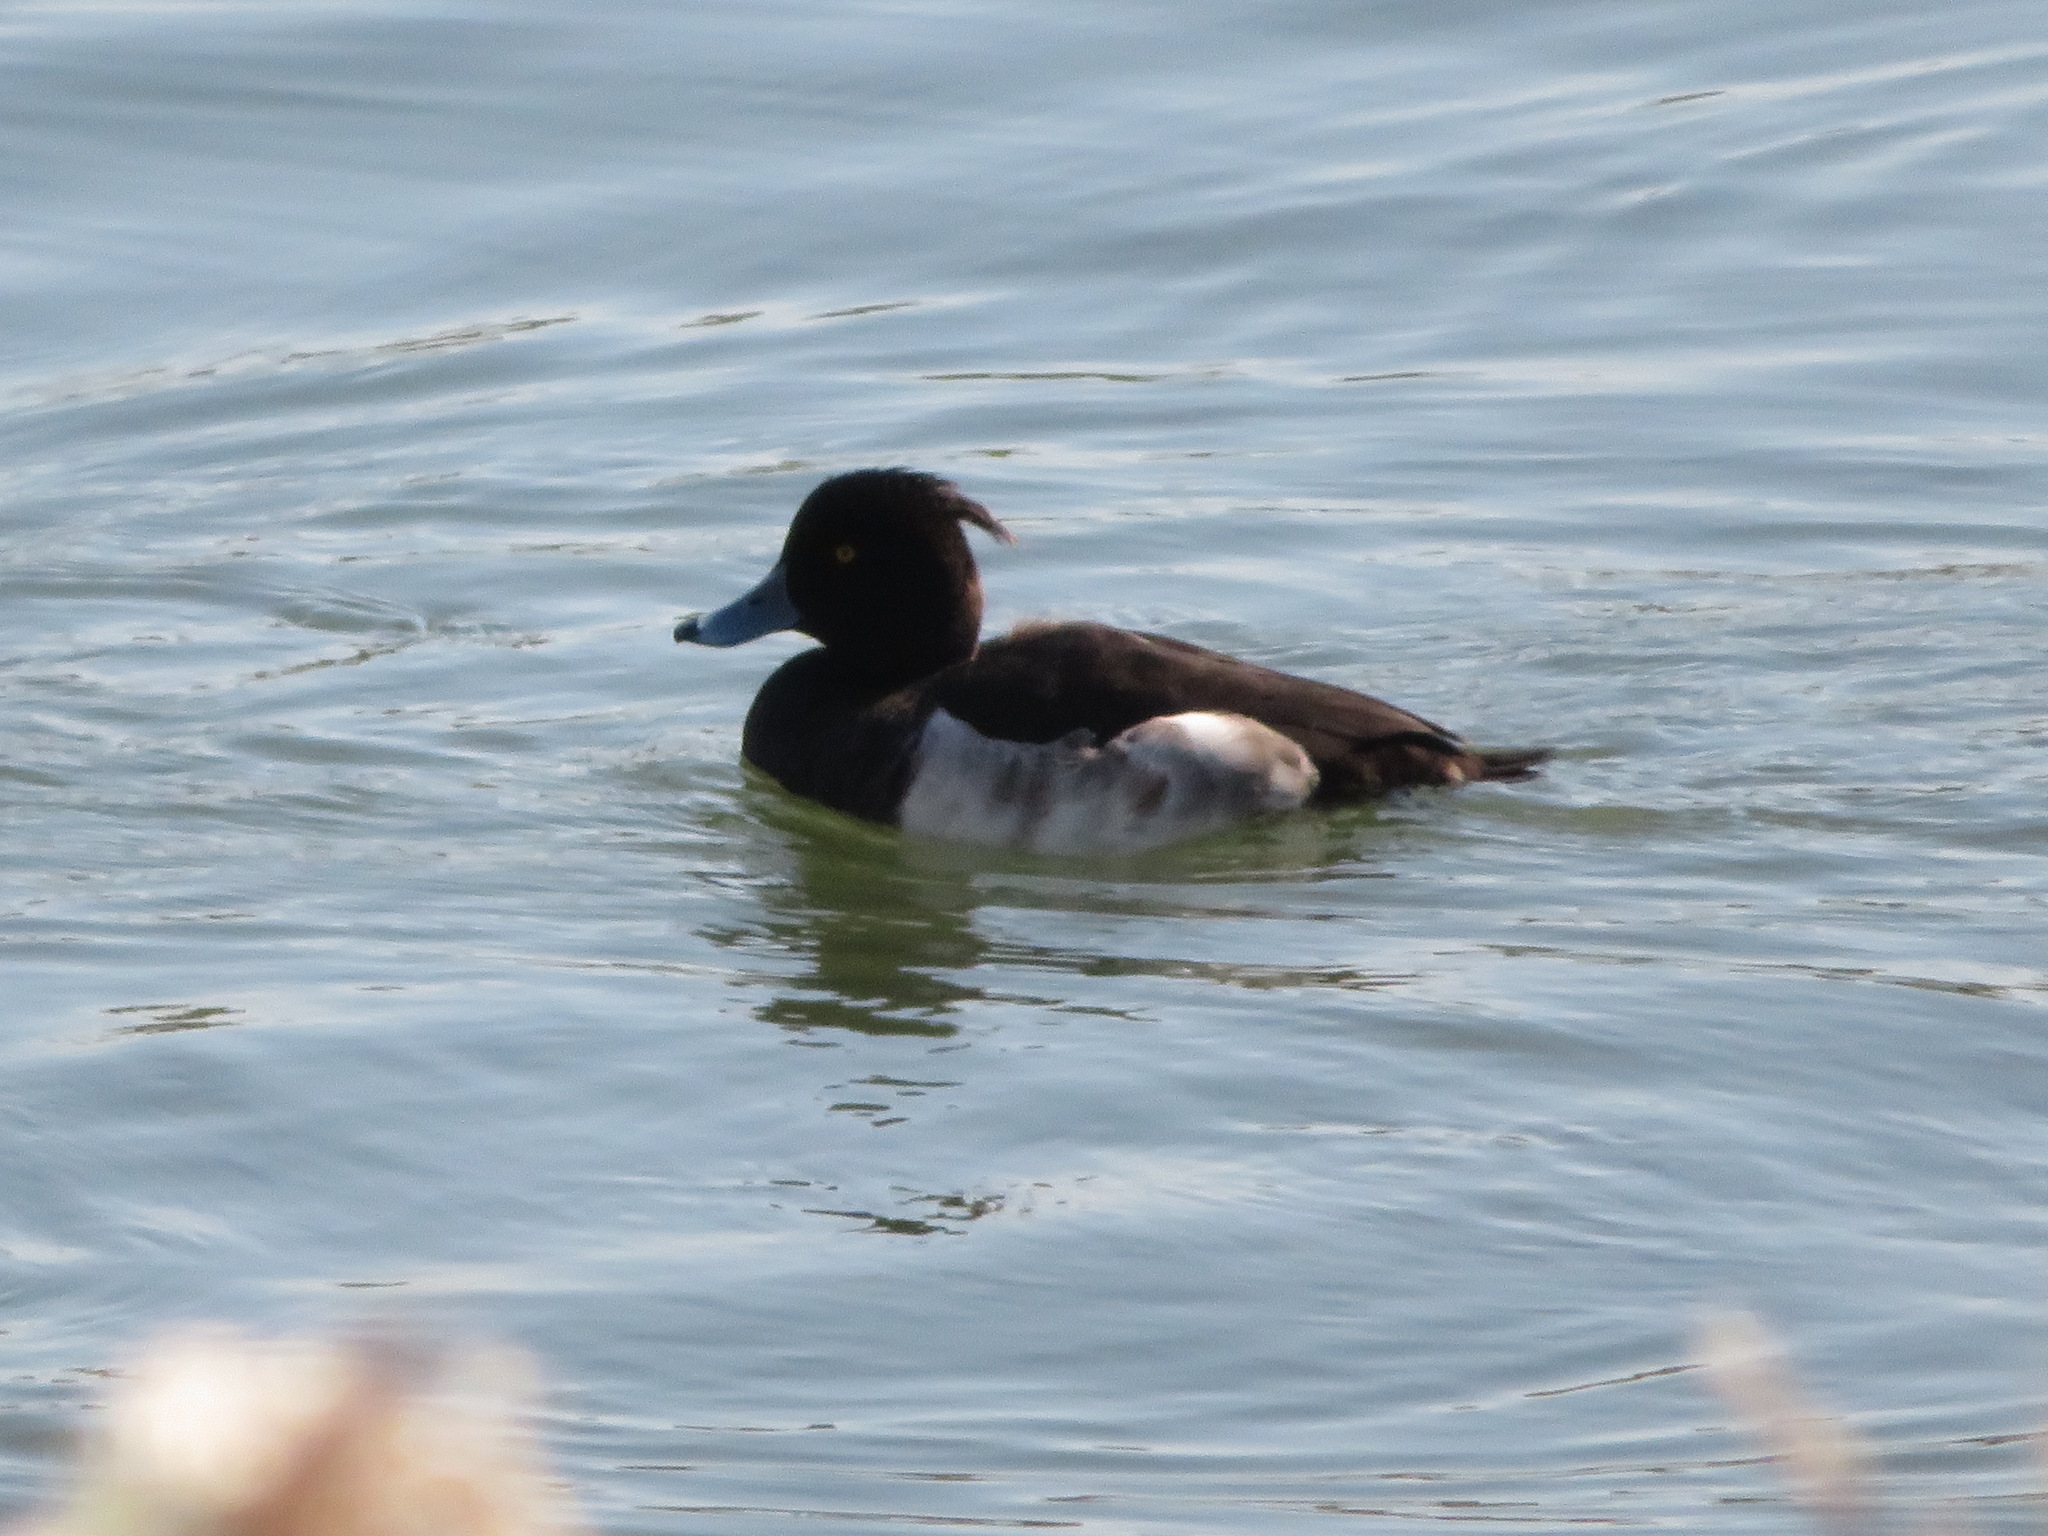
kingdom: Animalia
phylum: Chordata
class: Aves
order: Anseriformes
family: Anatidae
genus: Aythya
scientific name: Aythya fuligula
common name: Tufted duck
